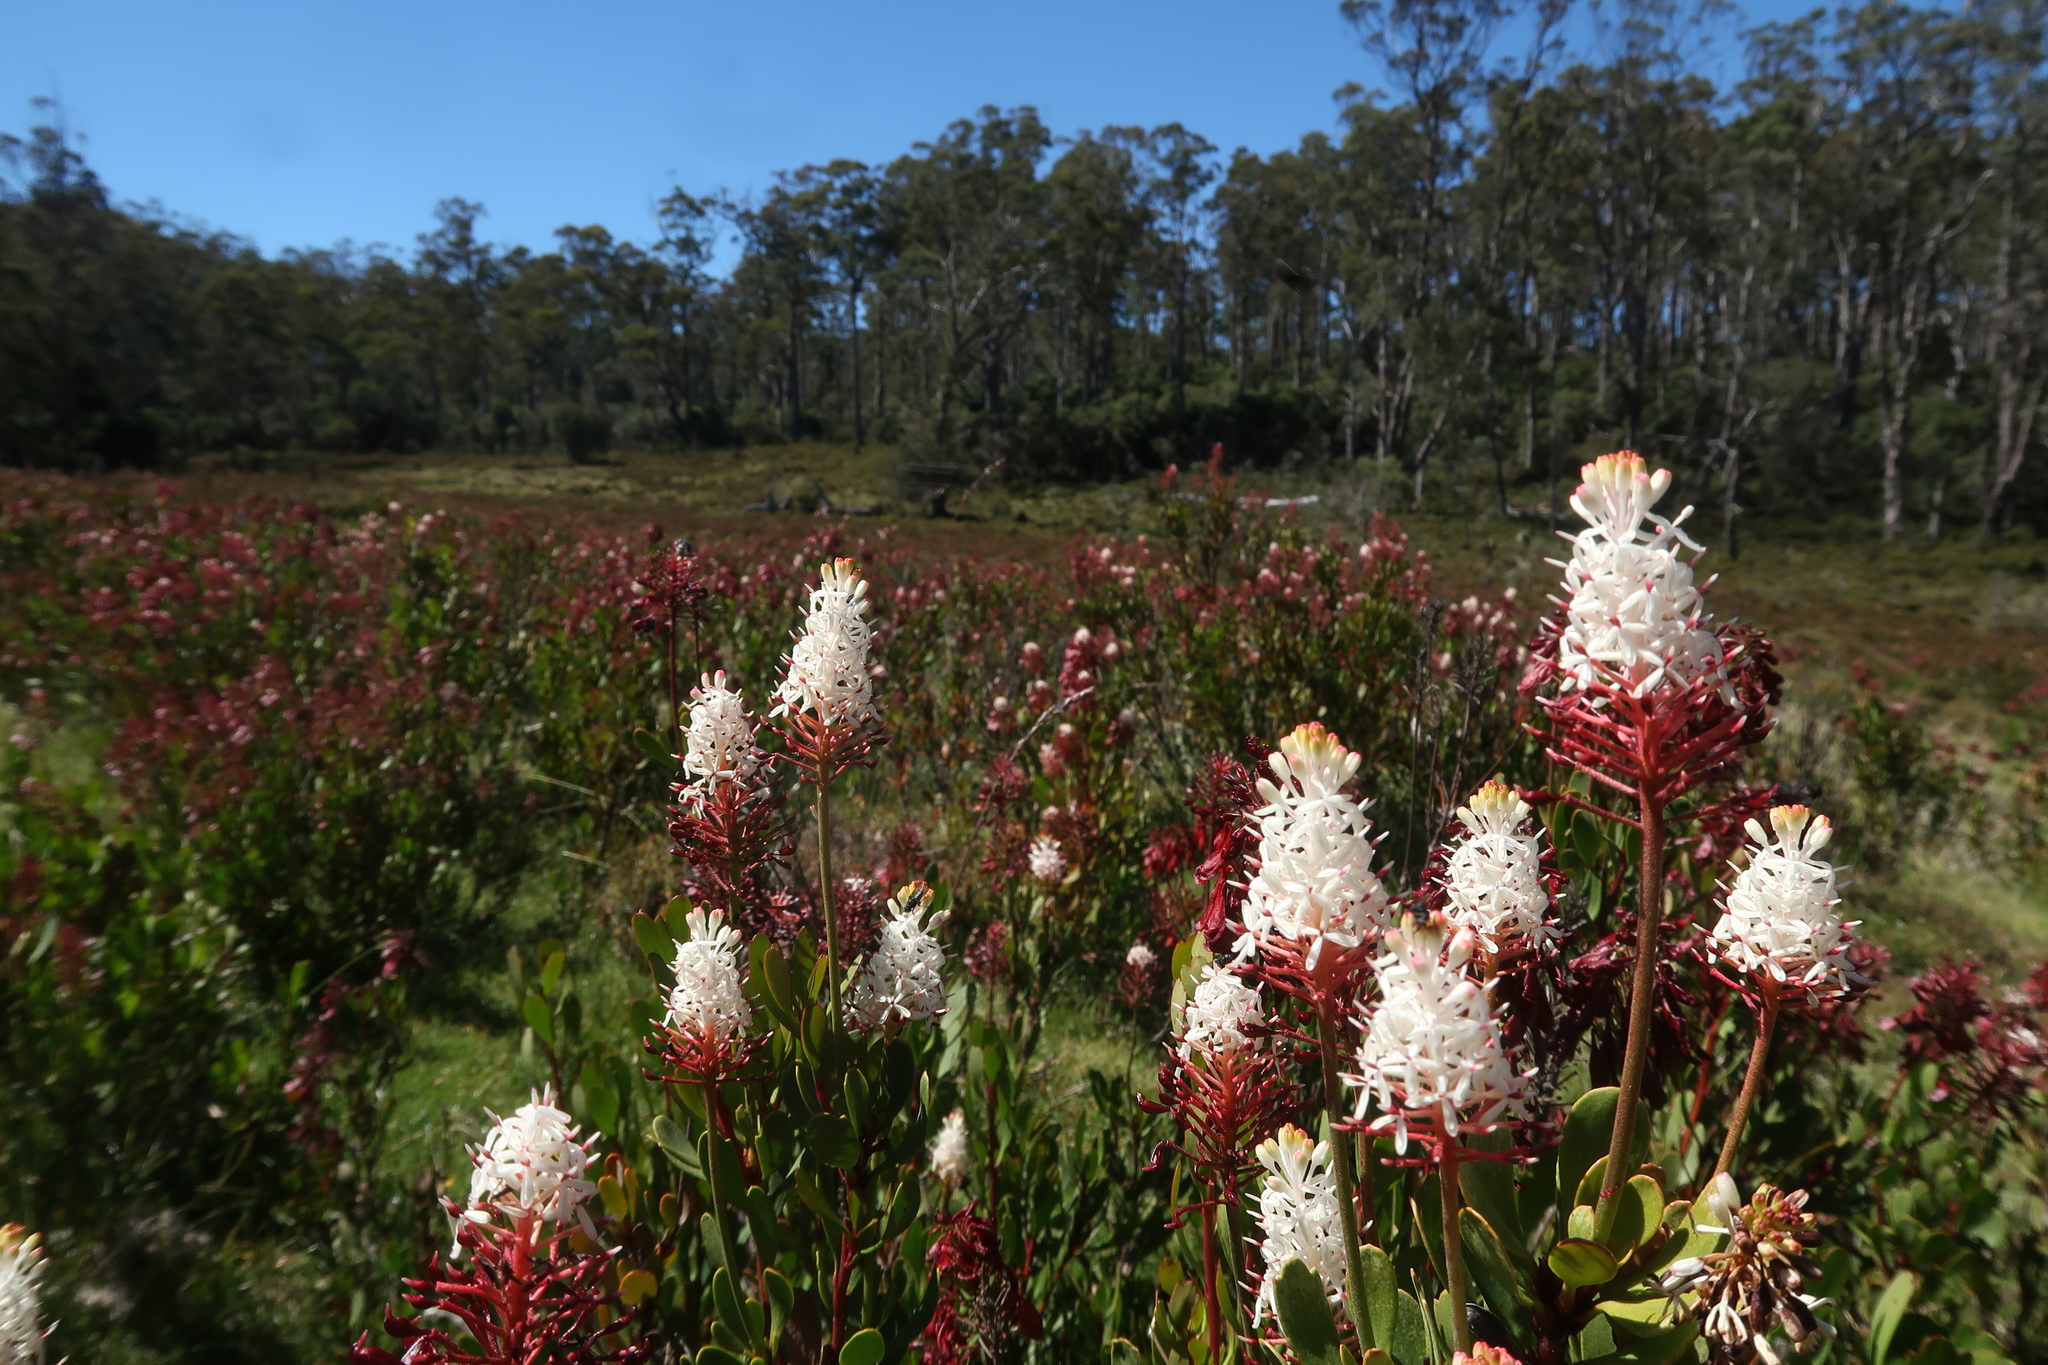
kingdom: Plantae
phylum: Tracheophyta
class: Magnoliopsida
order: Proteales
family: Proteaceae
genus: Bellendena
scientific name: Bellendena montana
